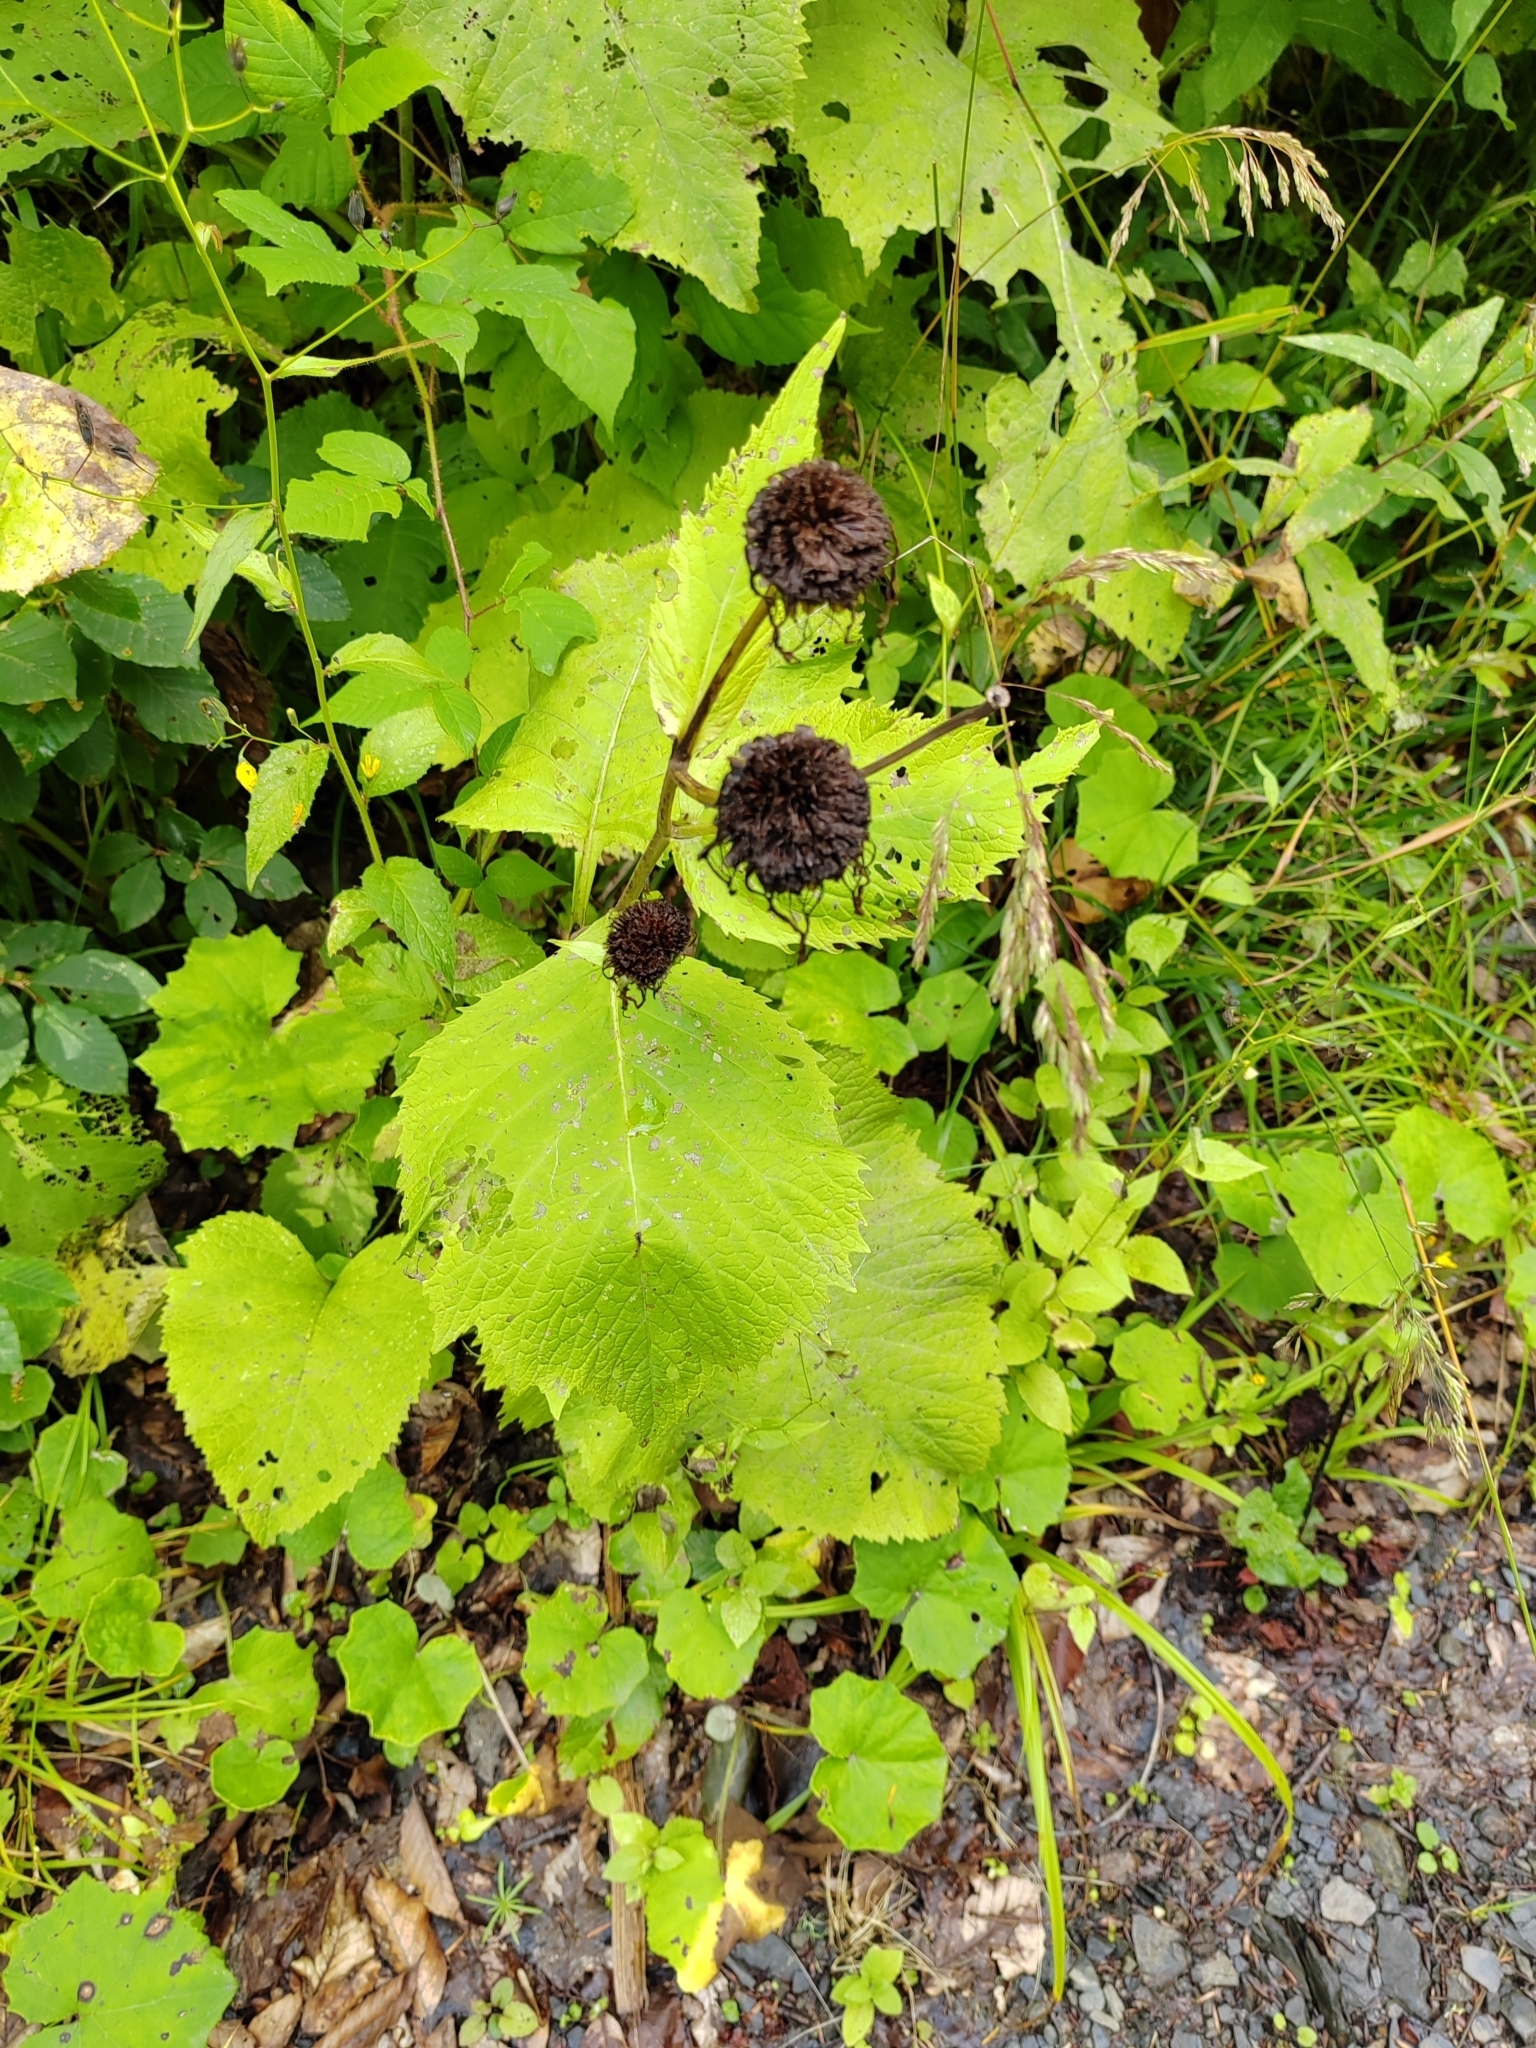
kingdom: Plantae
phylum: Tracheophyta
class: Magnoliopsida
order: Asterales
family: Asteraceae
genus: Telekia
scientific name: Telekia speciosa
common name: Yellow oxeye
